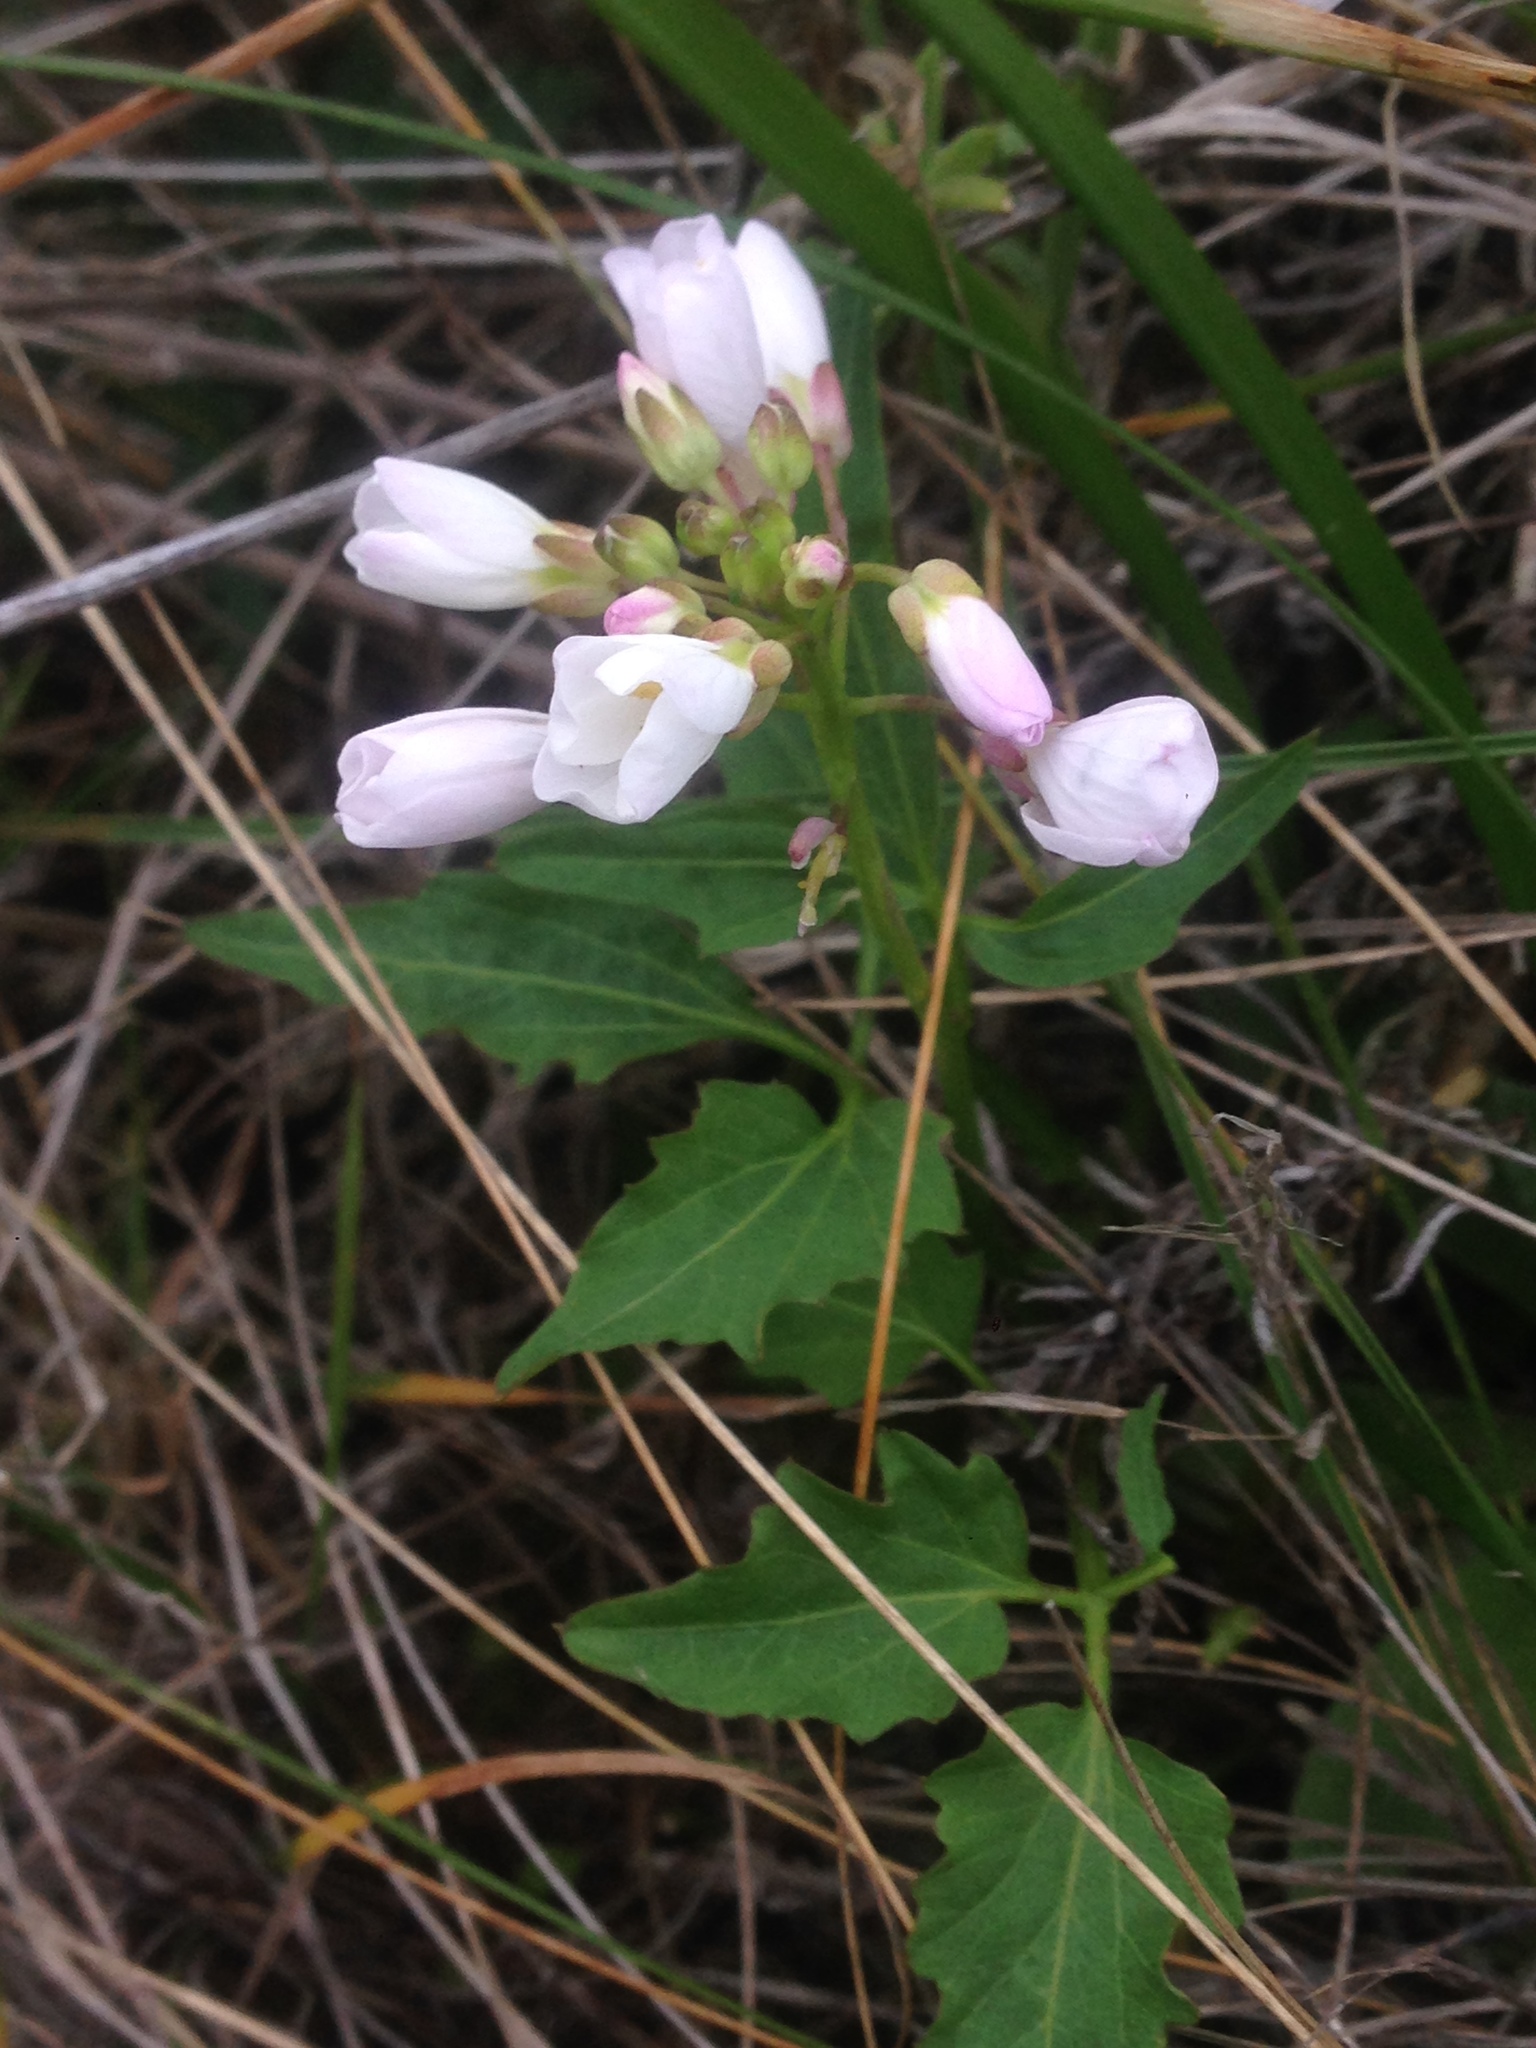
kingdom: Plantae
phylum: Tracheophyta
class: Magnoliopsida
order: Brassicales
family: Brassicaceae
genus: Cardamine
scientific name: Cardamine californica
